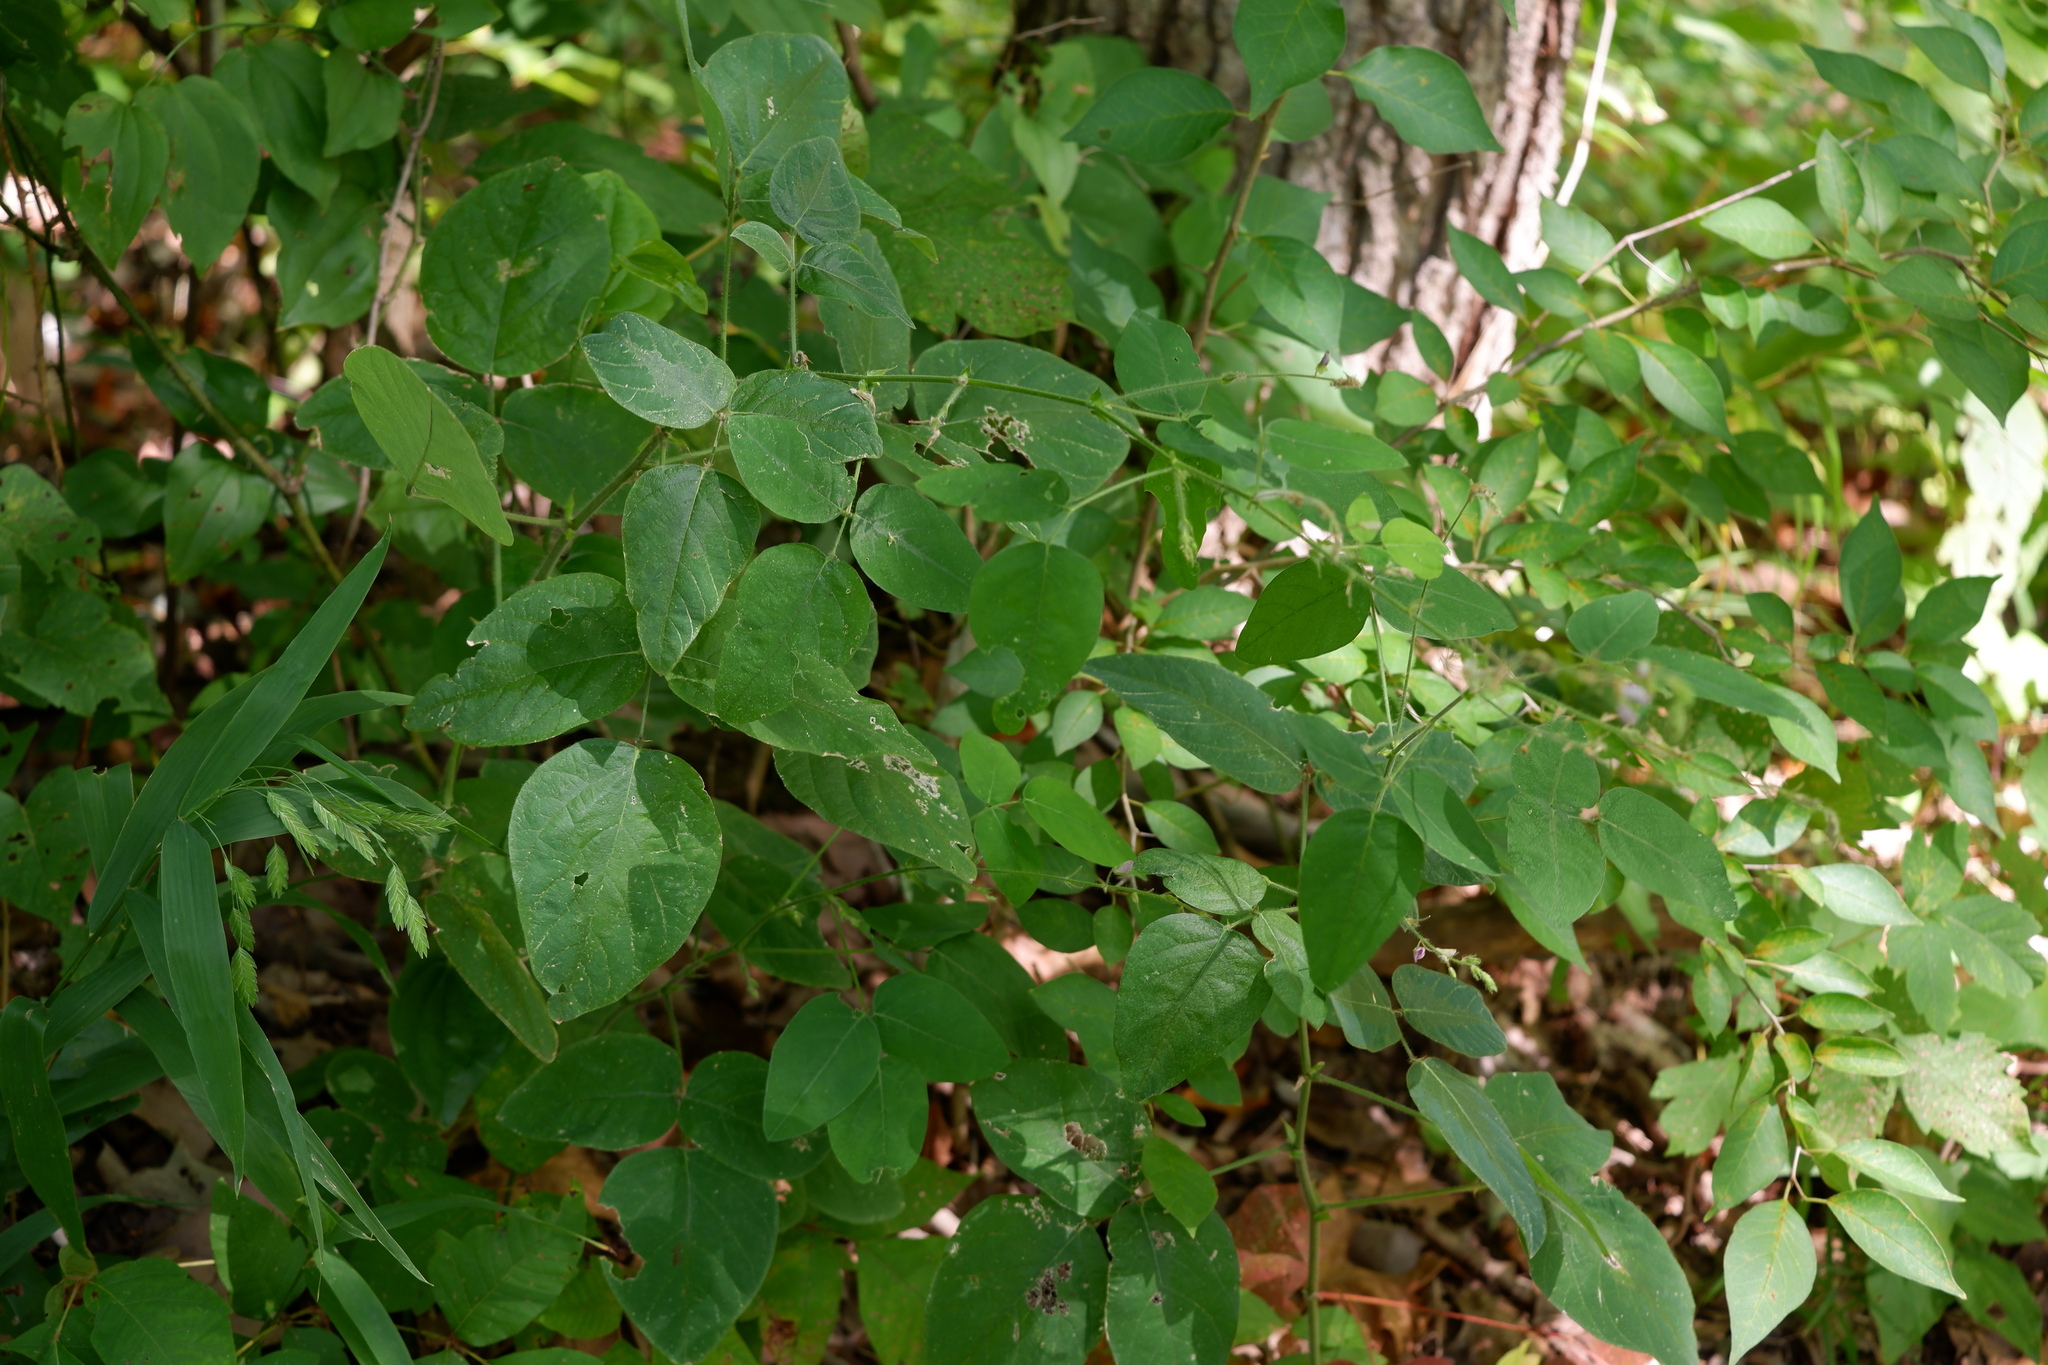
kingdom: Plantae
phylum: Tracheophyta
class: Magnoliopsida
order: Fabales
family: Fabaceae
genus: Desmodium
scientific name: Desmodium canescens
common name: Hoary tick-clover
